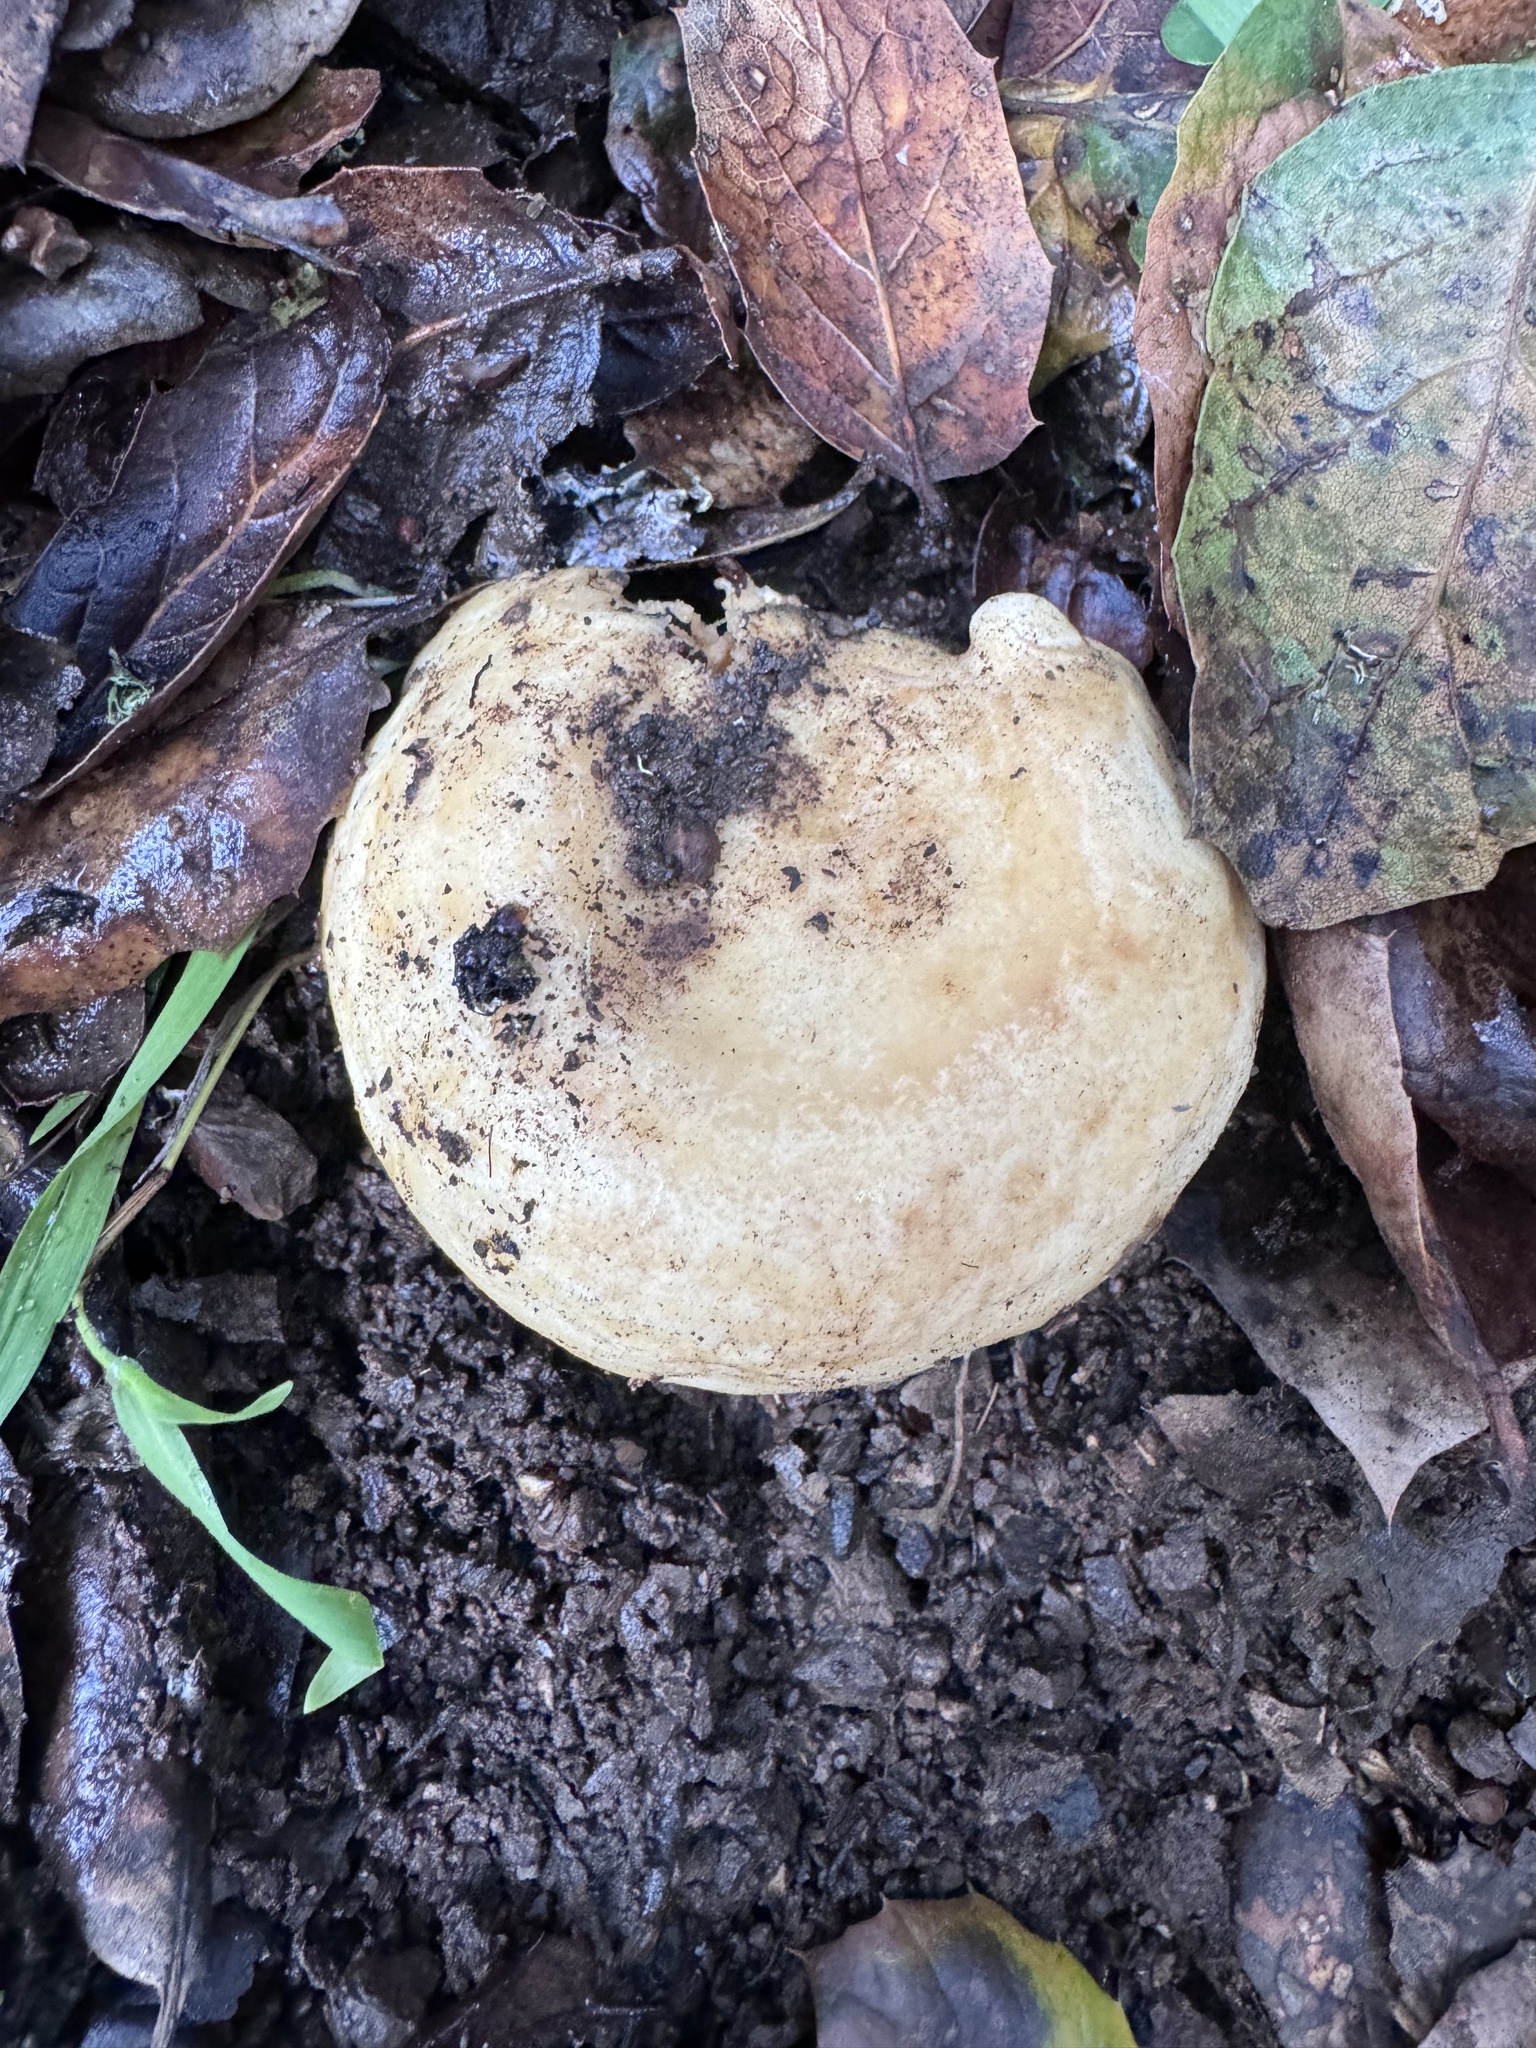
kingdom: Fungi
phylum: Basidiomycota
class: Agaricomycetes
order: Russulales
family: Russulaceae
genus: Lactarius
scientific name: Lactarius alnicola
